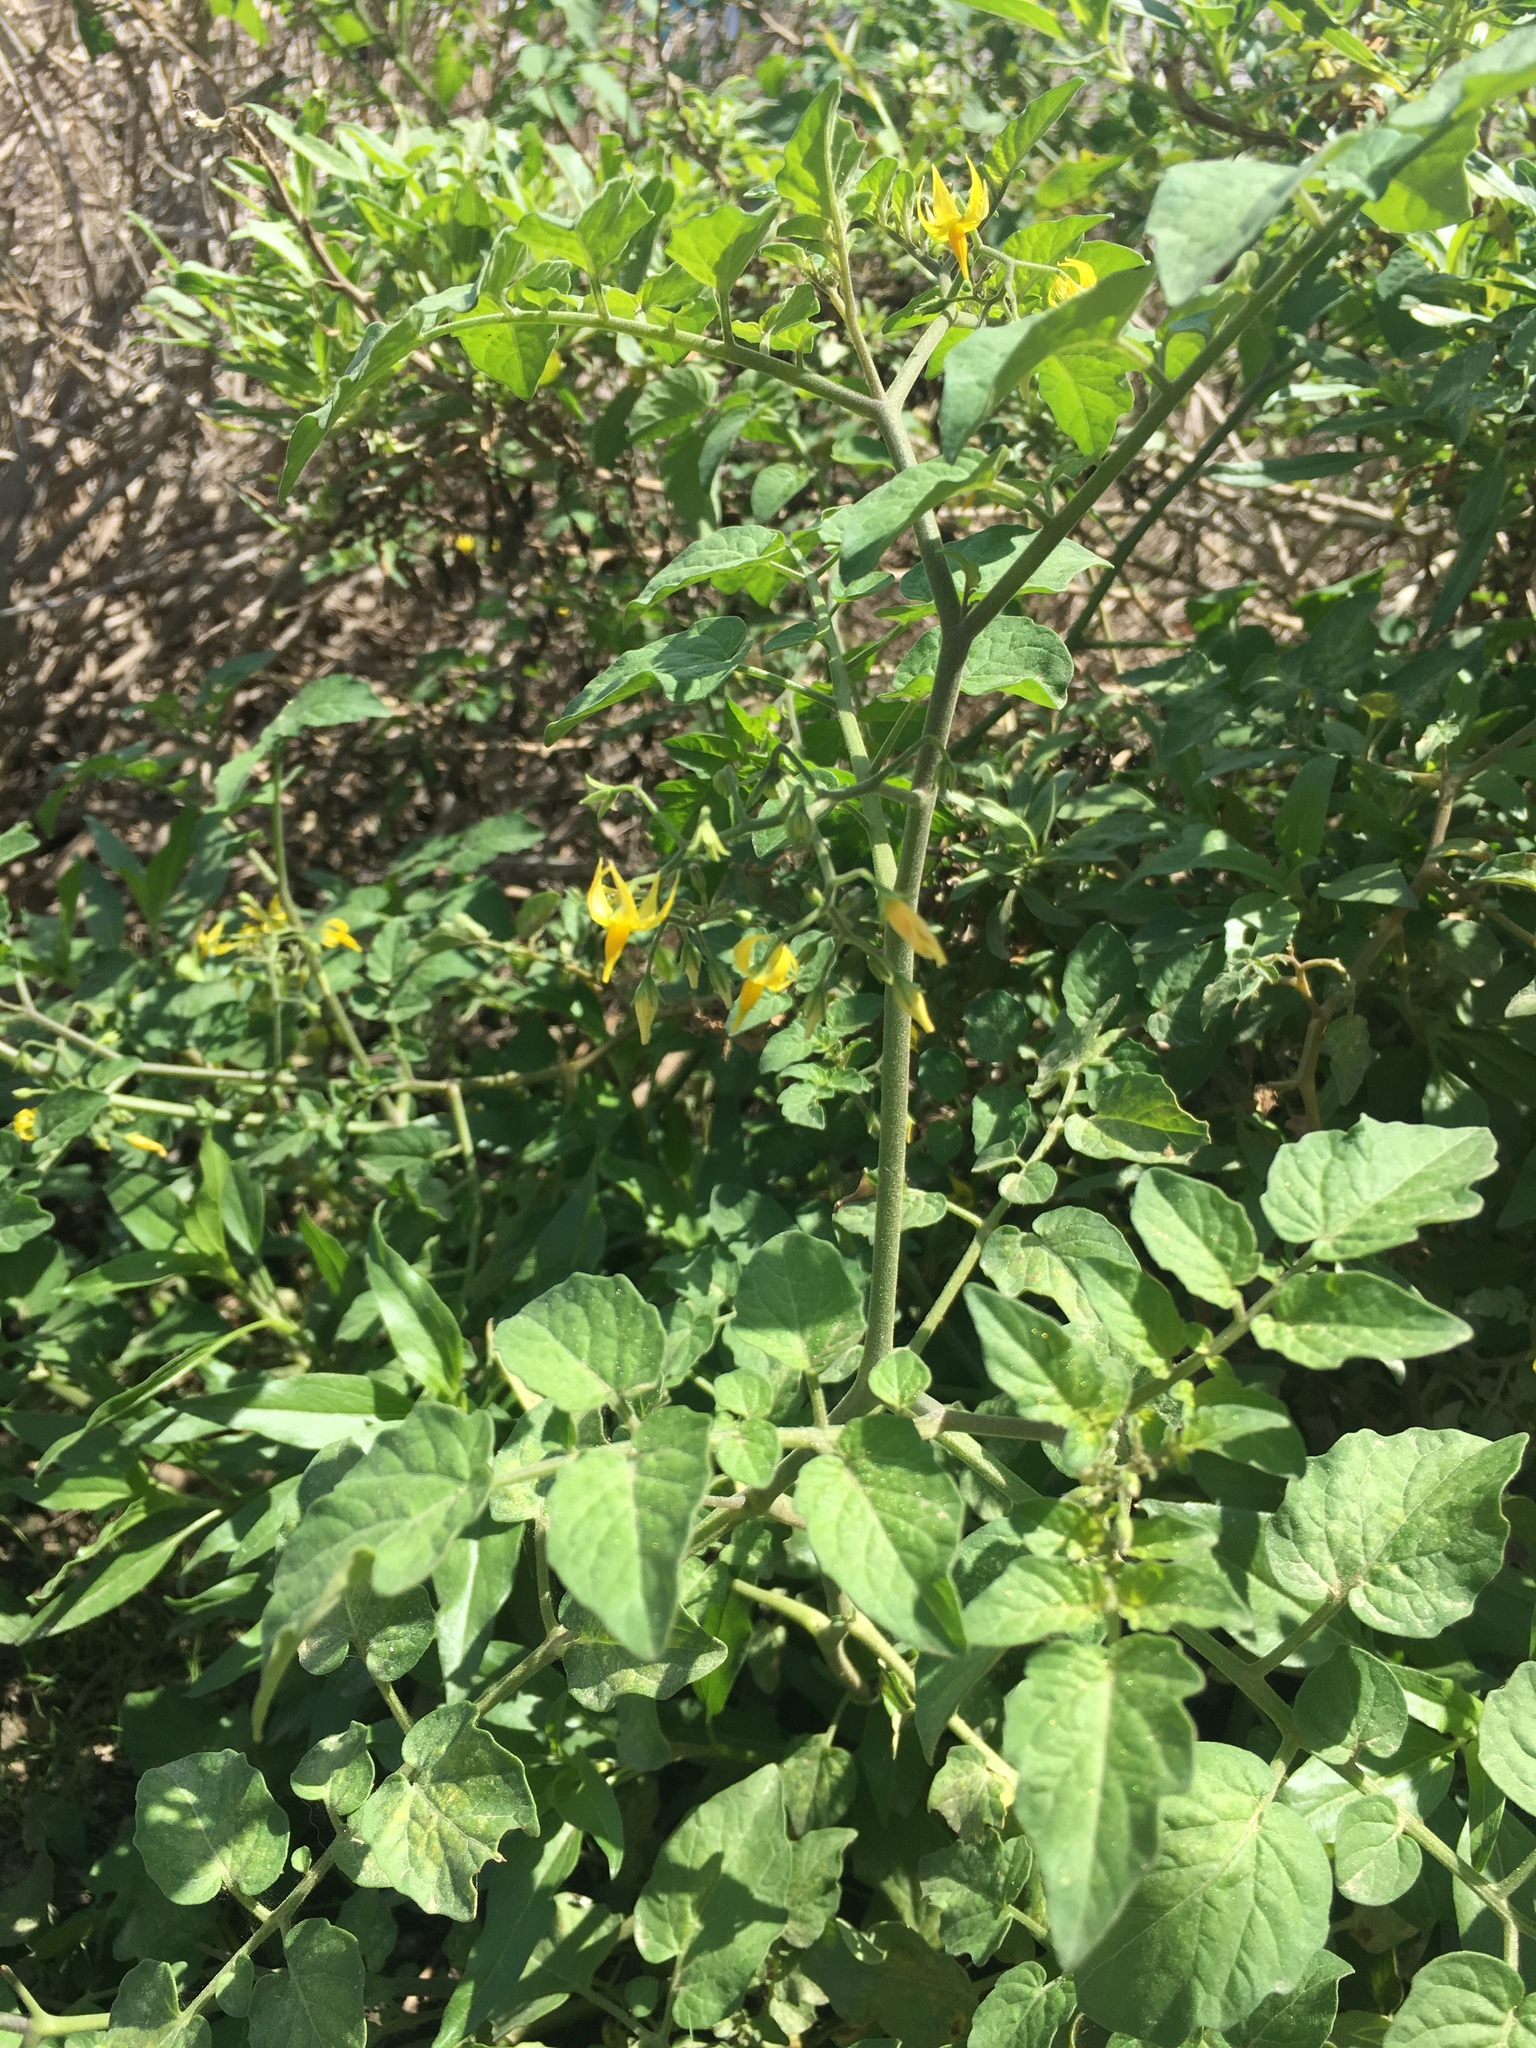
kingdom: Plantae
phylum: Tracheophyta
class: Magnoliopsida
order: Solanales
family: Solanaceae
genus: Solanum
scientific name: Solanum lycopersicum
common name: Garden tomato
